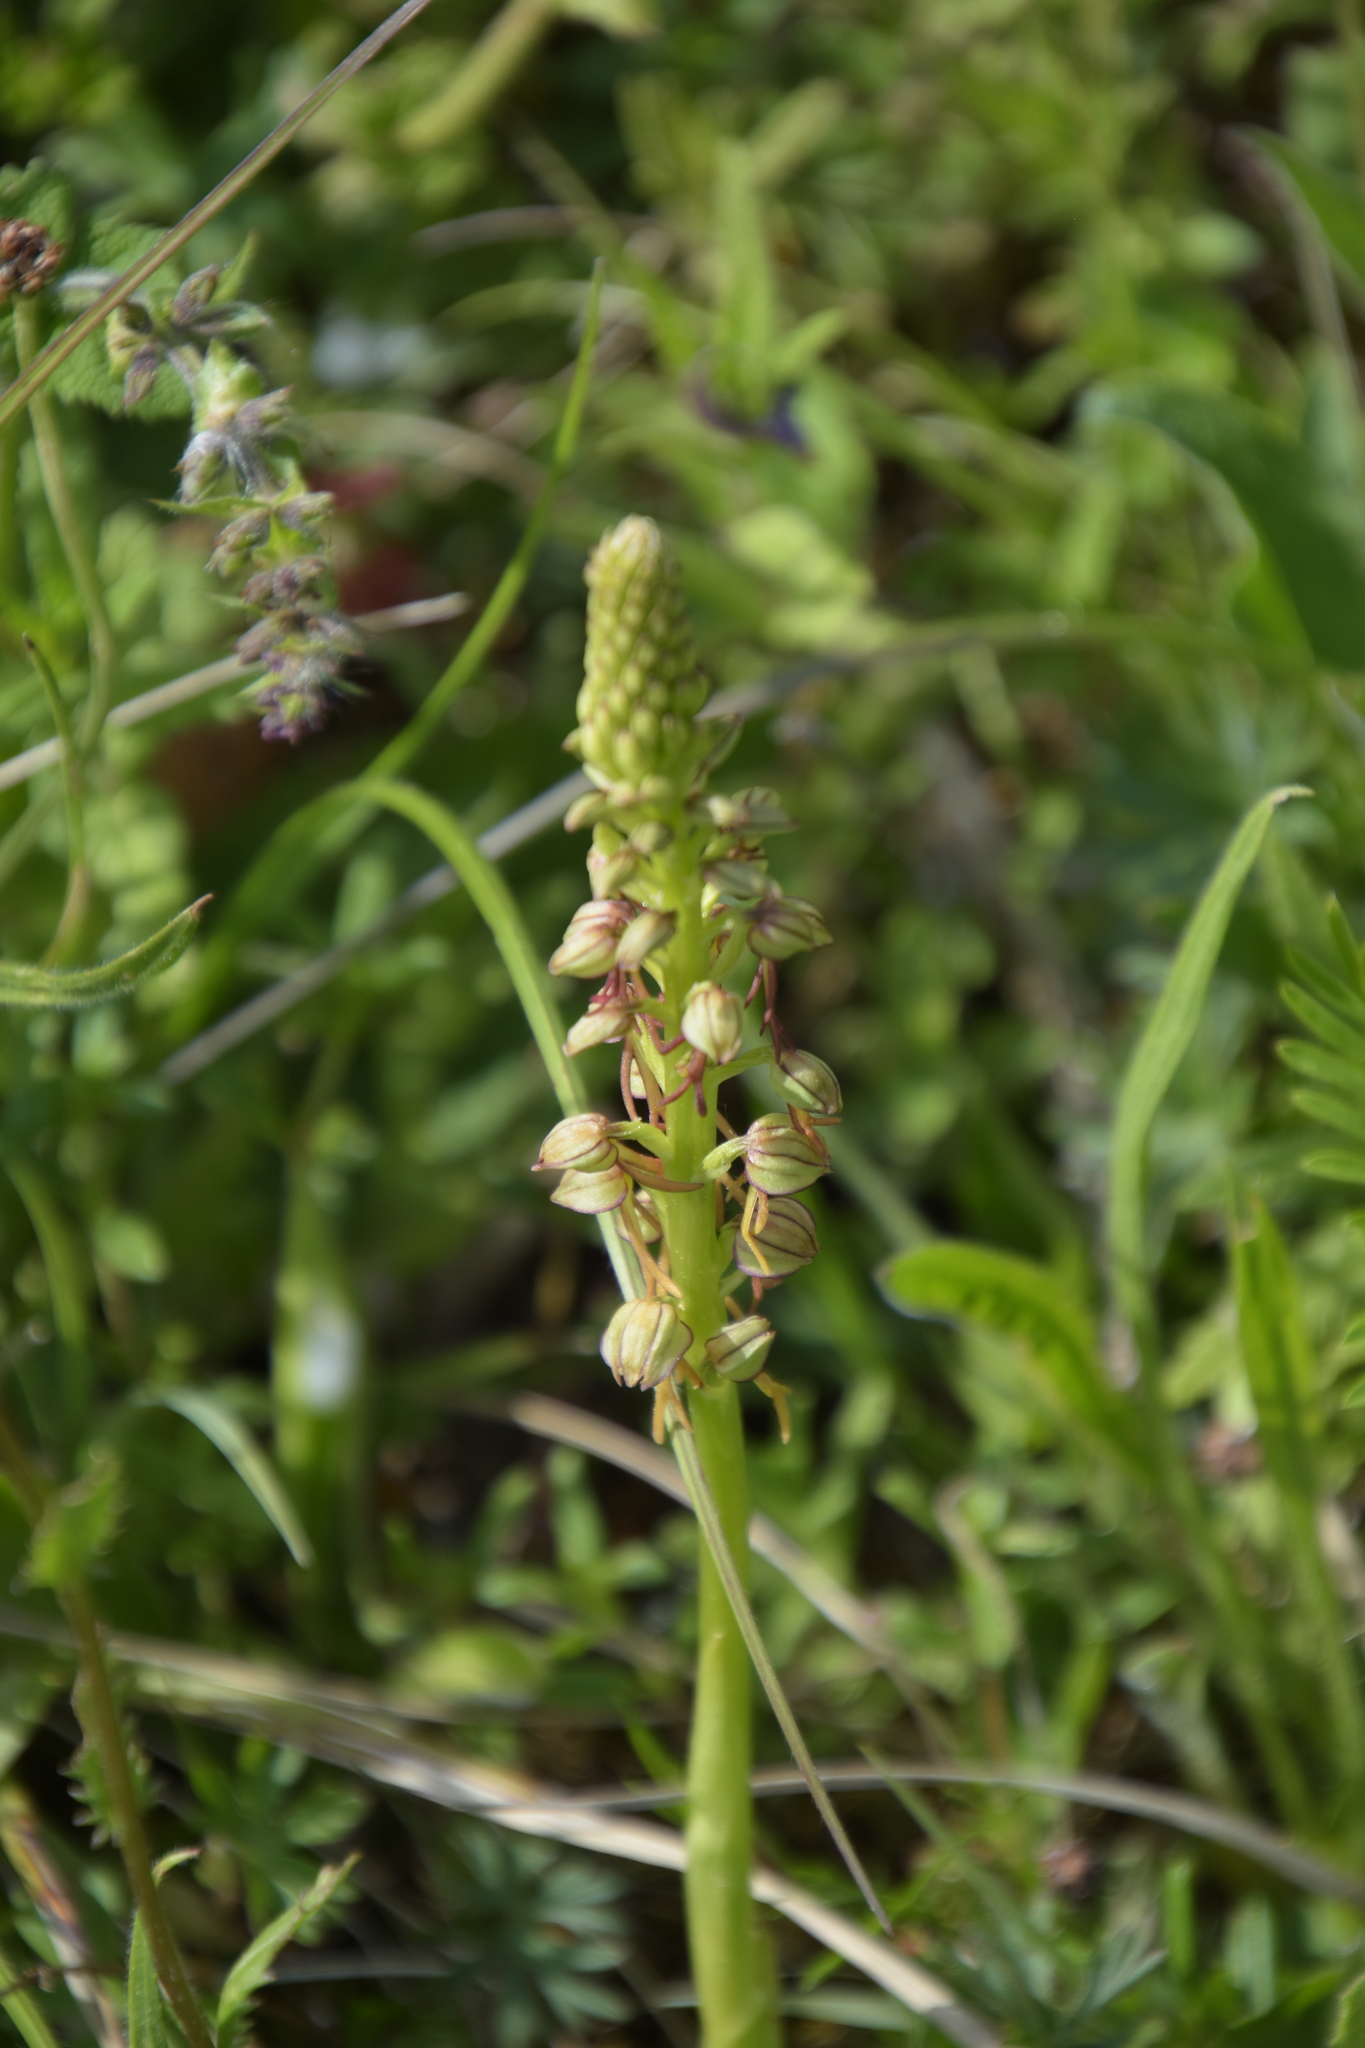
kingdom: Plantae
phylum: Tracheophyta
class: Liliopsida
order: Asparagales
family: Orchidaceae
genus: Orchis
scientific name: Orchis anthropophora
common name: Man orchid
